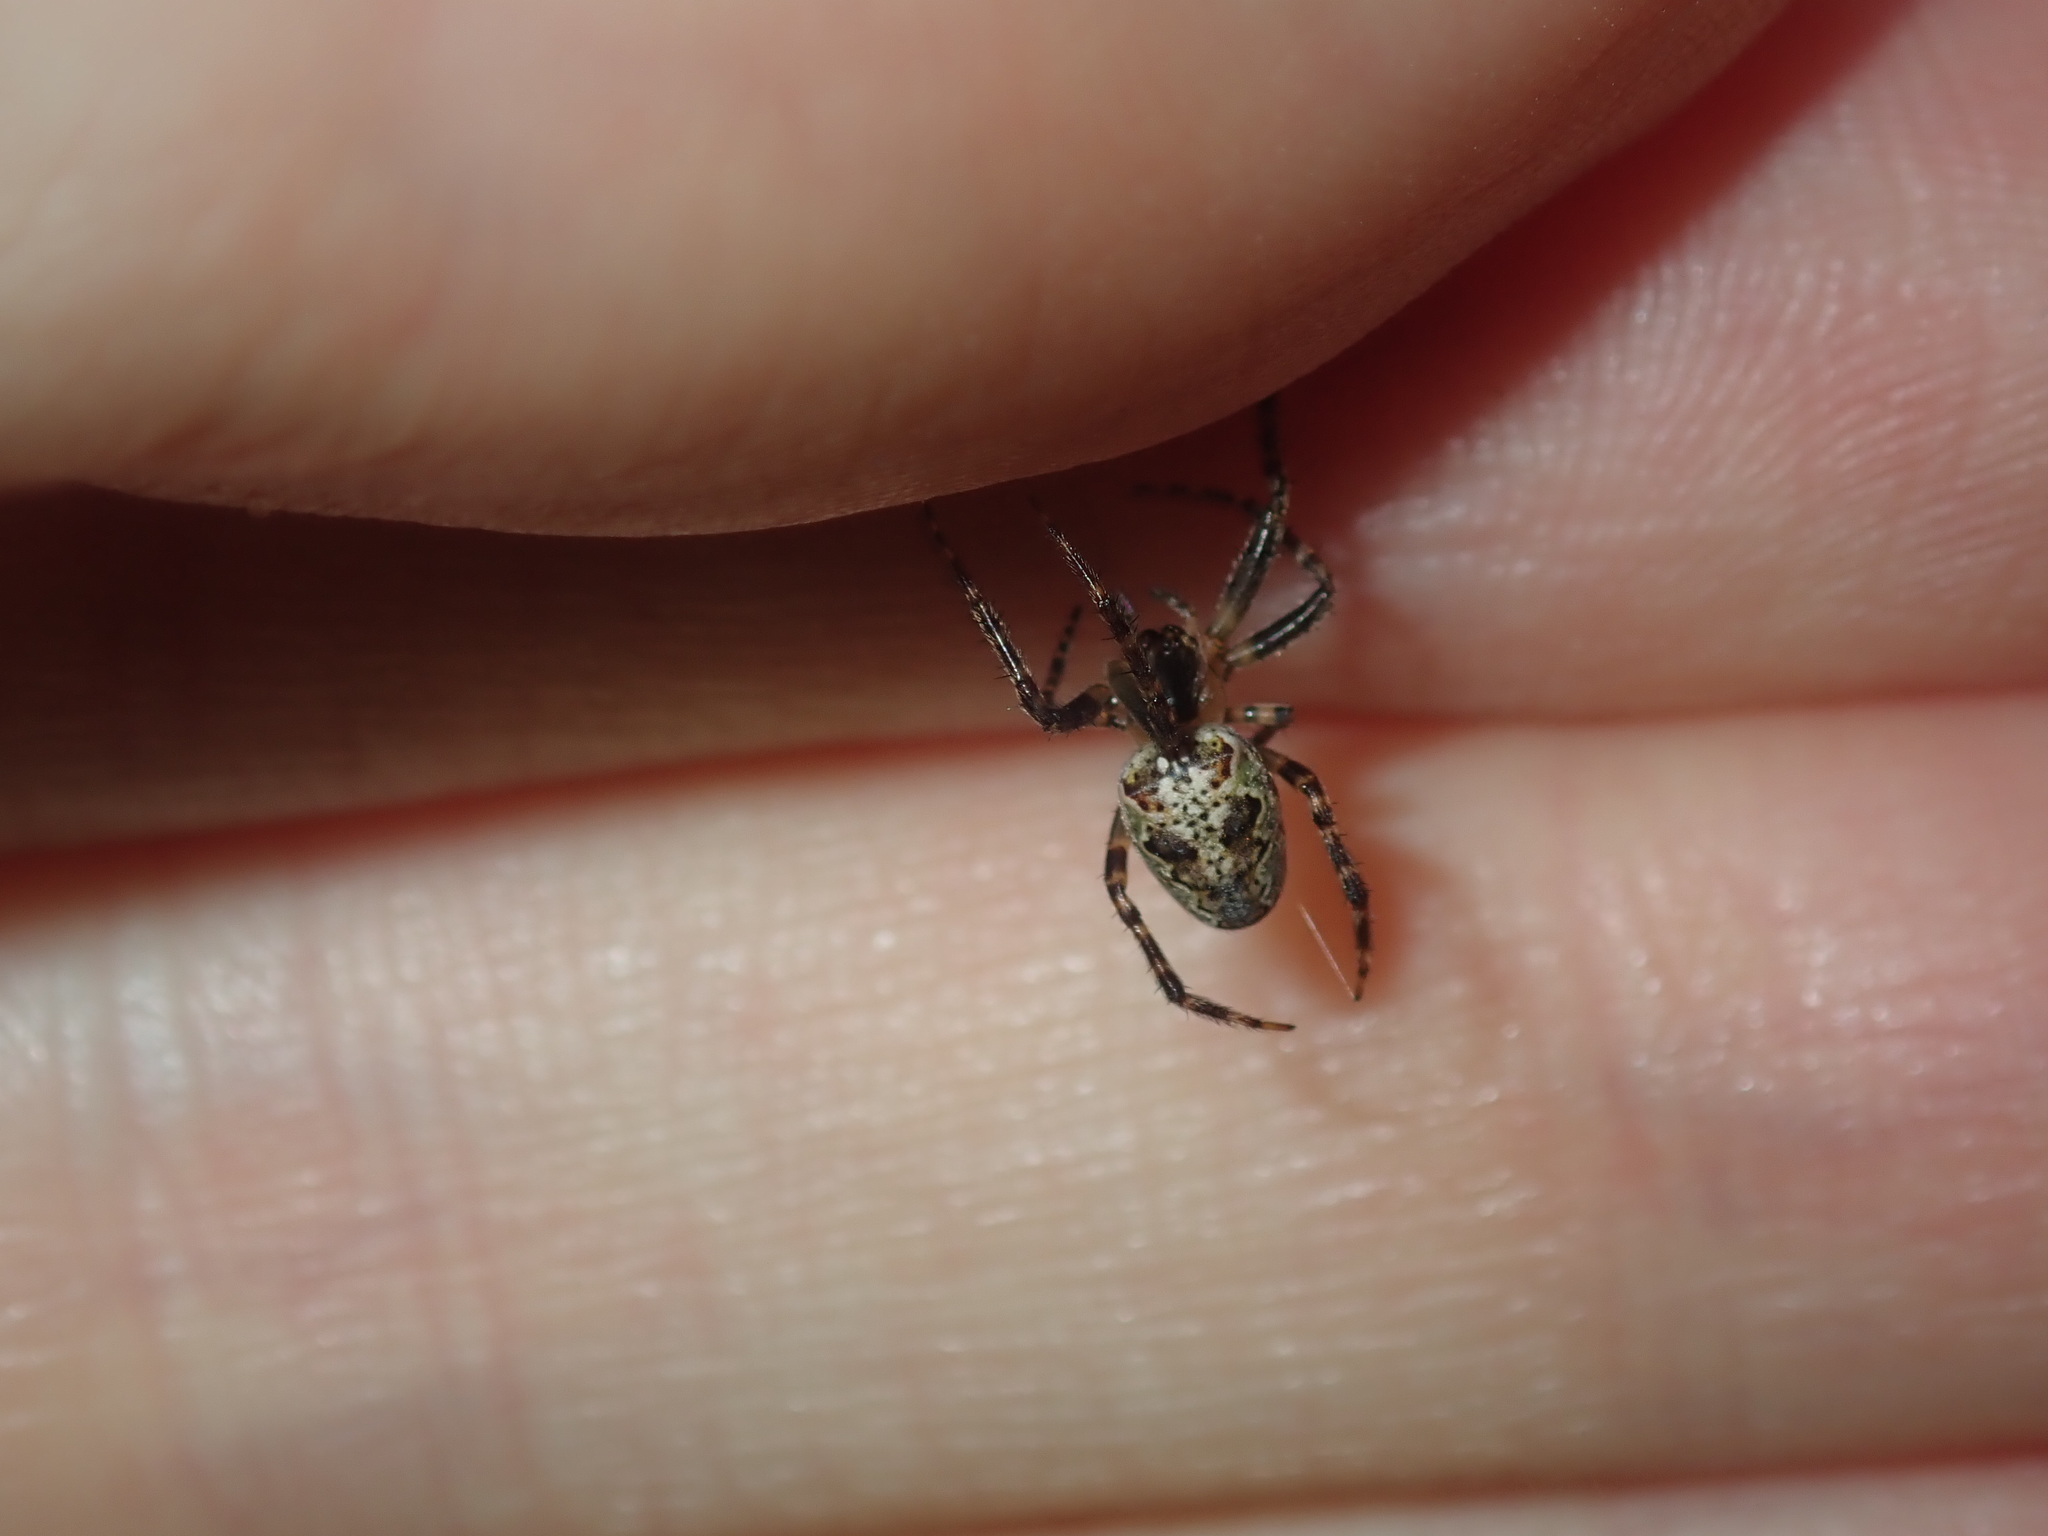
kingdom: Animalia
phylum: Arthropoda
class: Arachnida
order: Araneae
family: Araneidae
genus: Plebs
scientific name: Plebs eburnus
